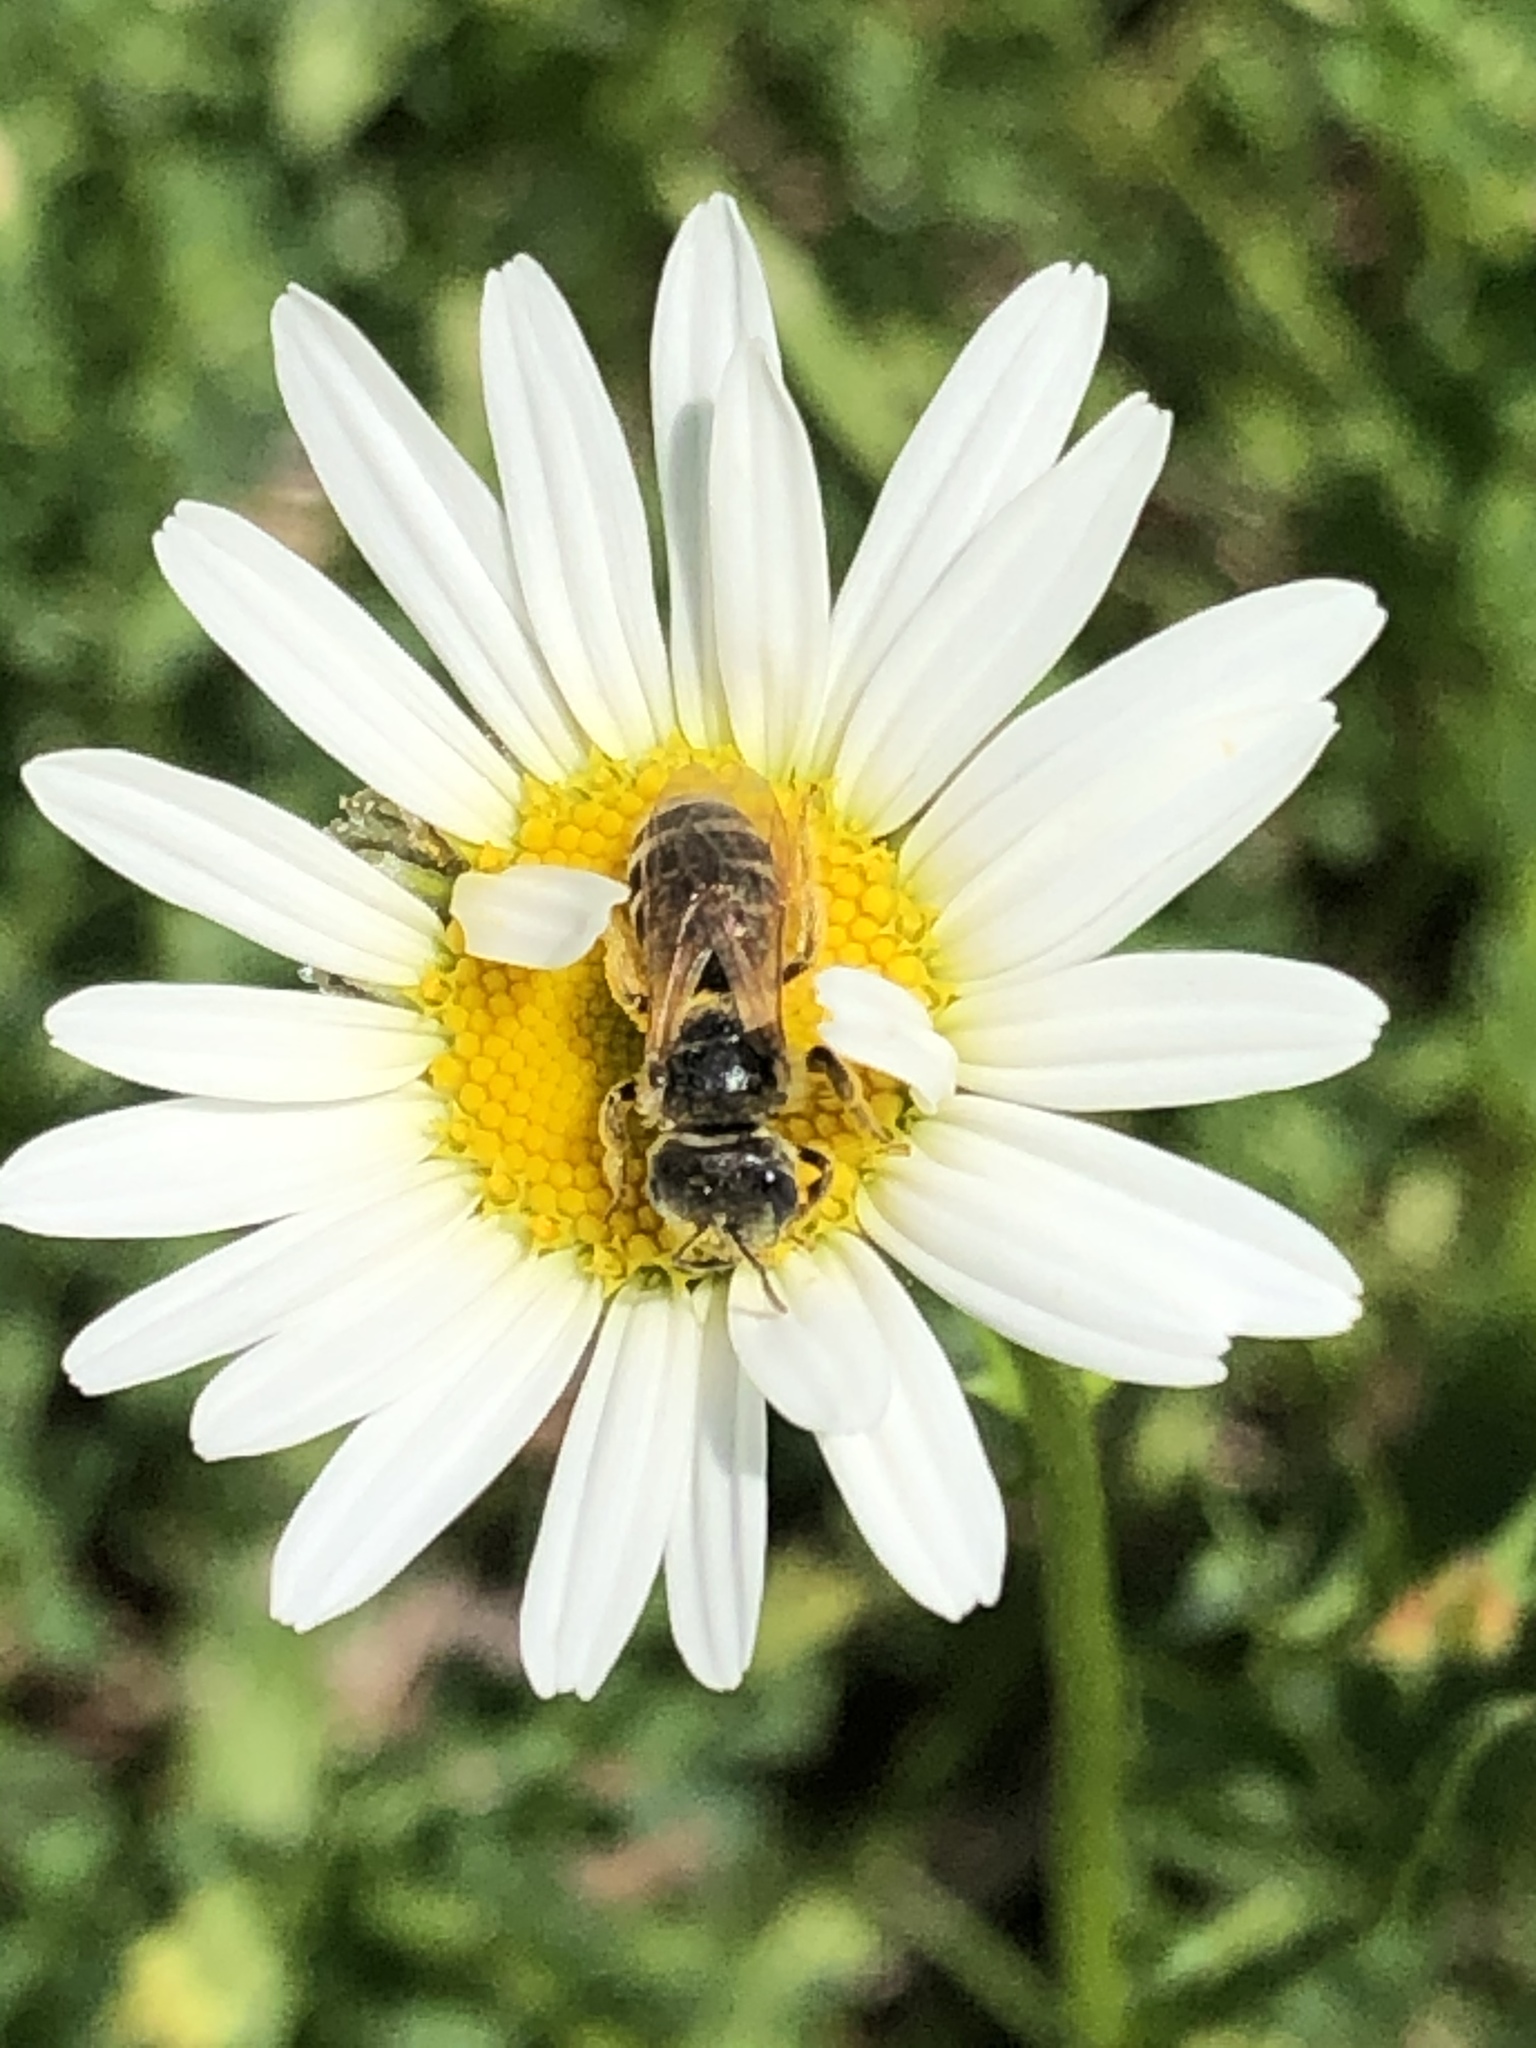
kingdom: Animalia
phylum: Arthropoda
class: Insecta
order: Hymenoptera
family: Halictidae
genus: Halictus
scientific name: Halictus ligatus
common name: Ligated furrow bee
